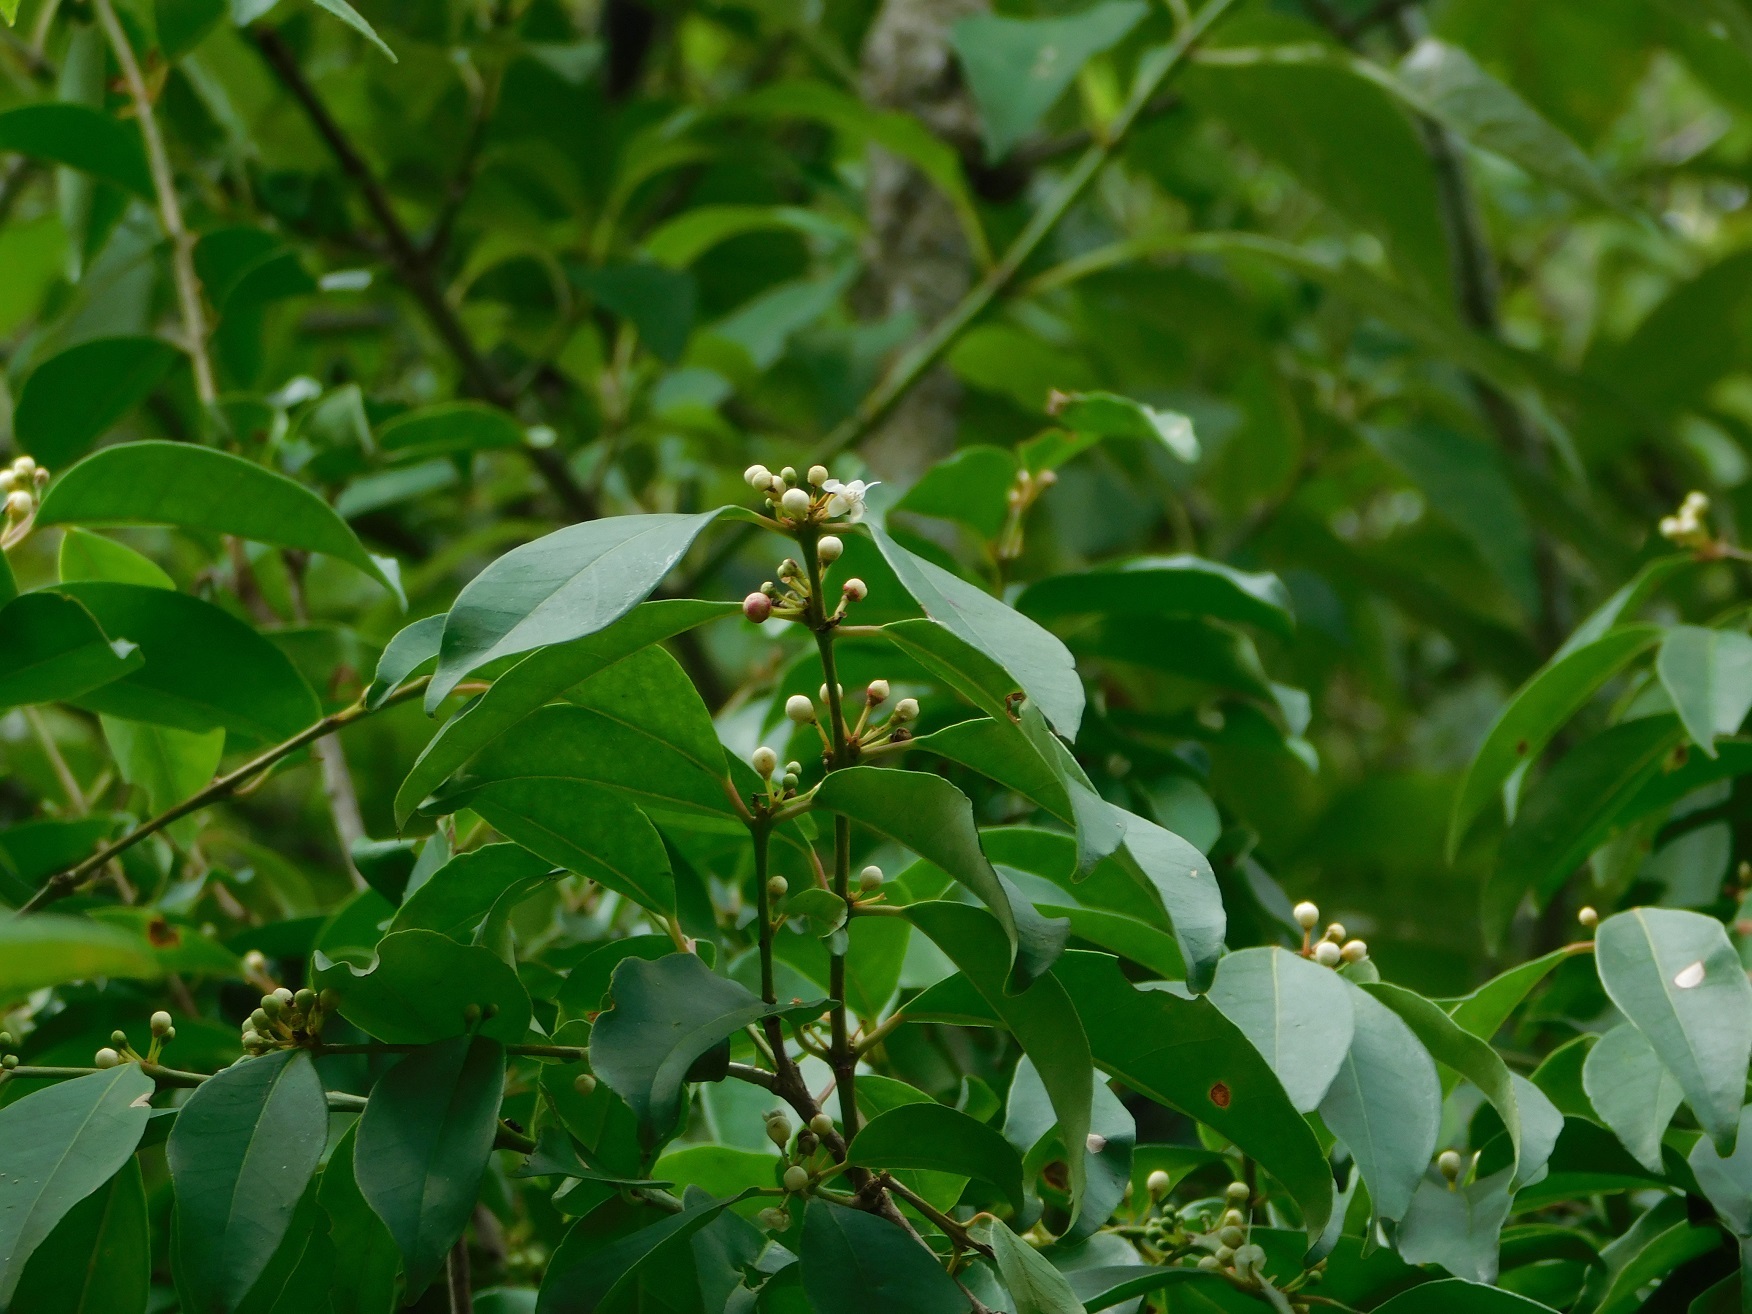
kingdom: Plantae
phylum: Tracheophyta
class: Magnoliopsida
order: Myrtales
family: Myrtaceae
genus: Eugenia
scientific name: Eugenia capuli
